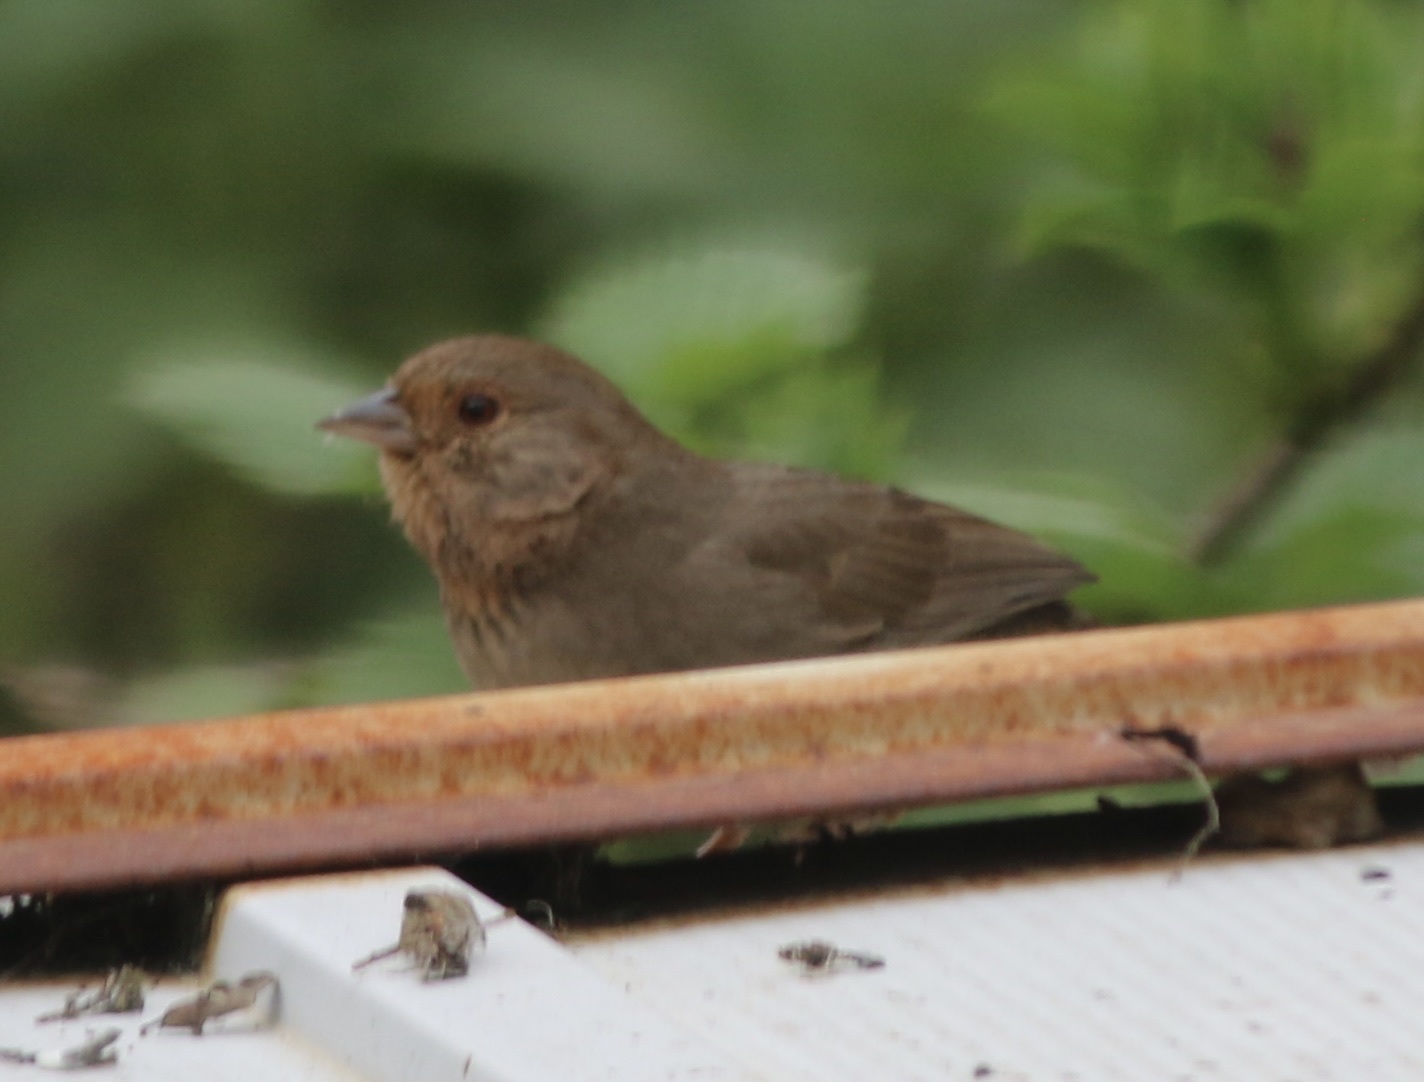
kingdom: Animalia
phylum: Chordata
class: Aves
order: Passeriformes
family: Passerellidae
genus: Melozone
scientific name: Melozone crissalis
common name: California towhee
